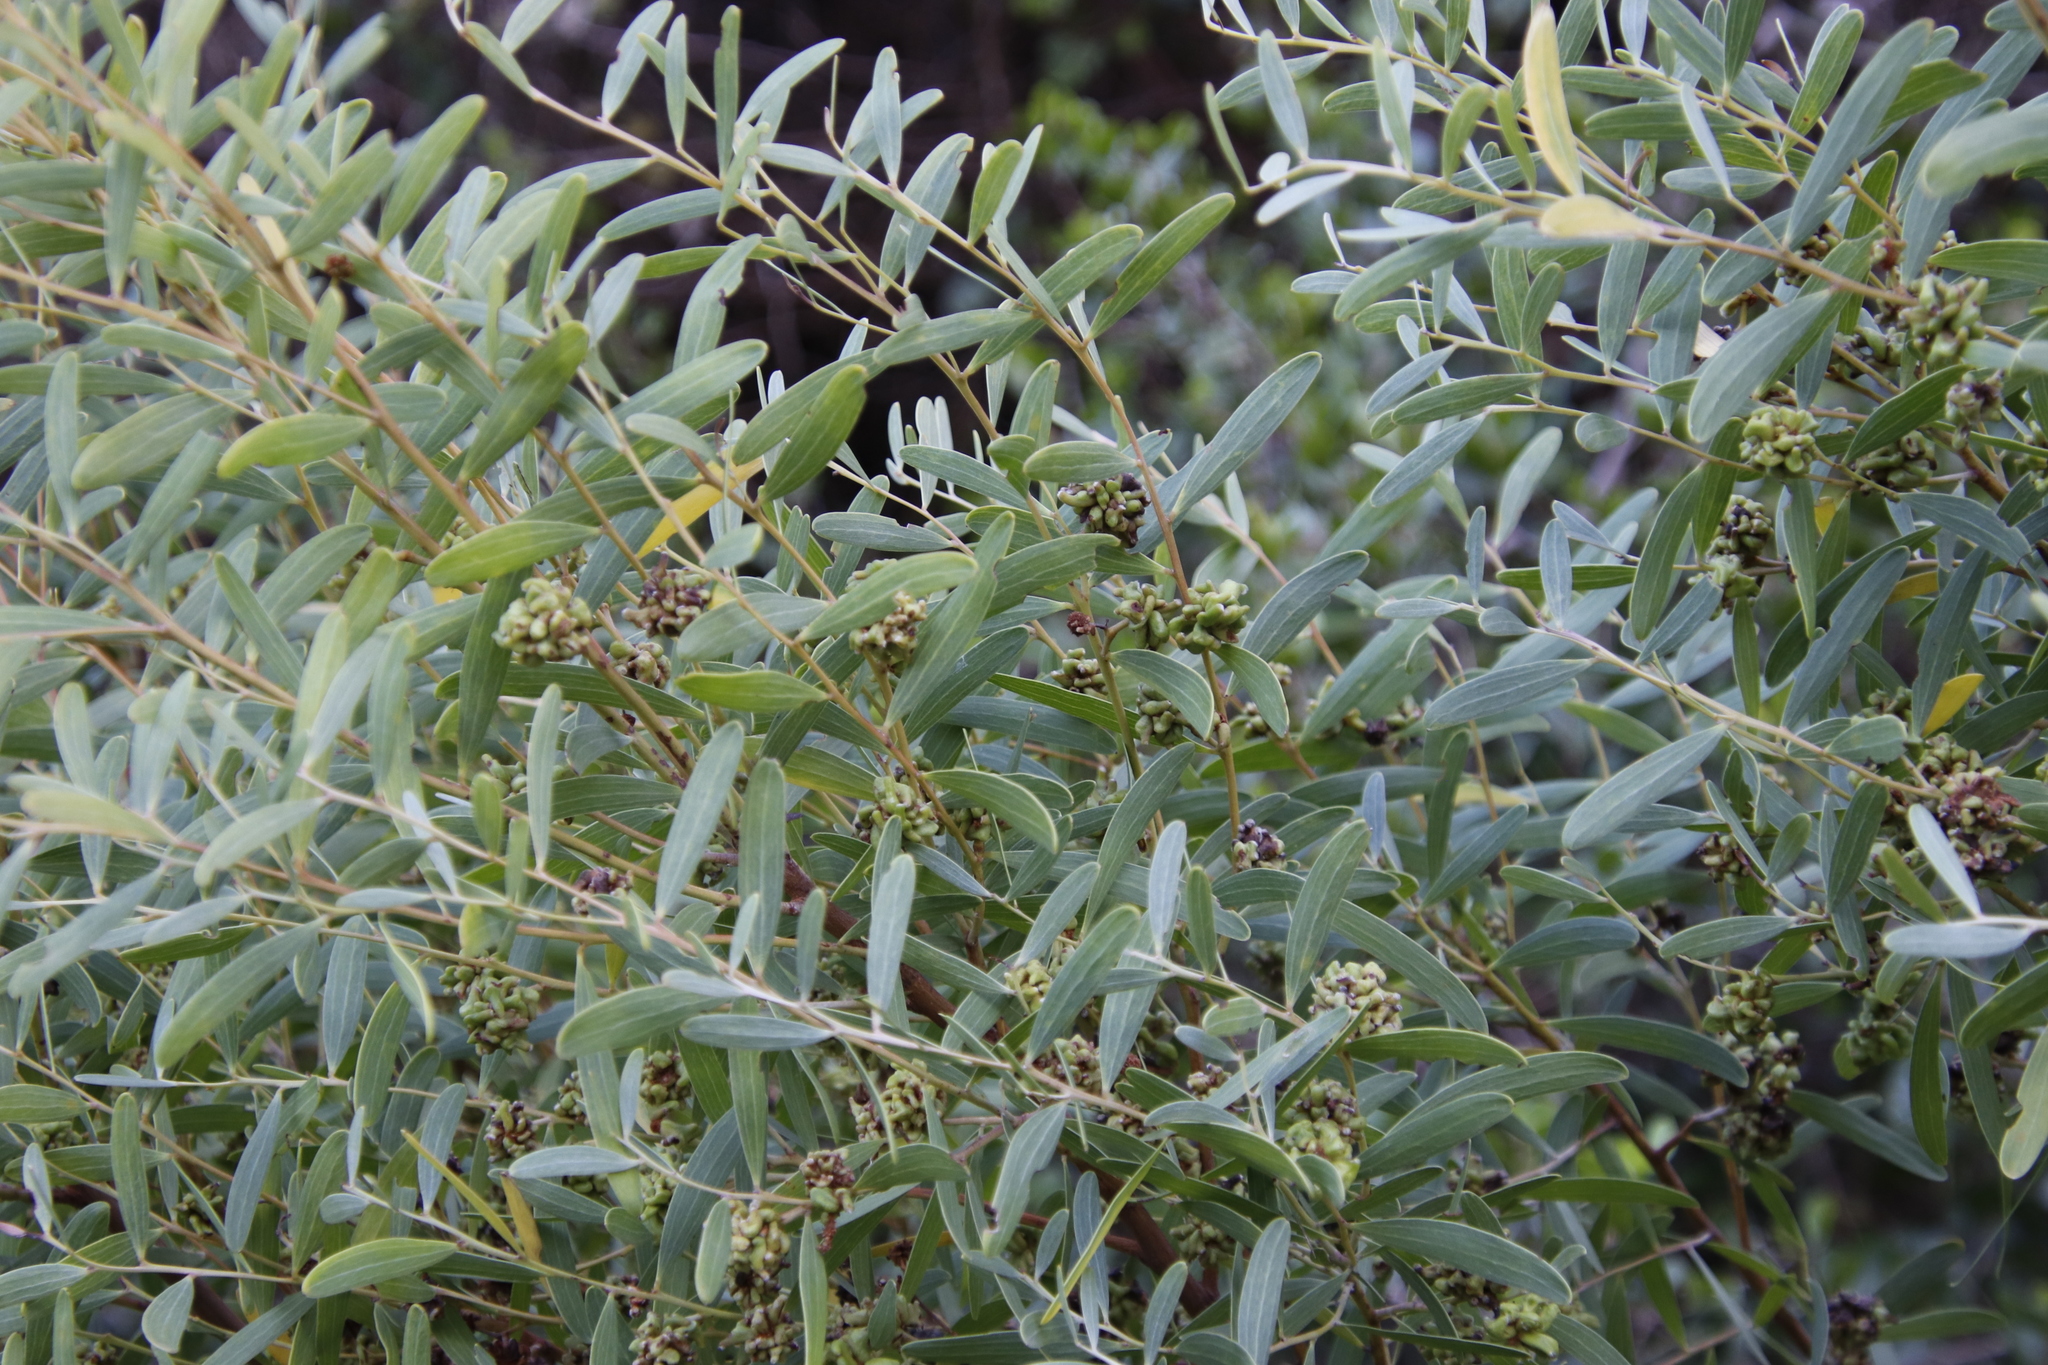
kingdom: Animalia
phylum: Arthropoda
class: Insecta
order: Diptera
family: Cecidomyiidae
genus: Dasineura
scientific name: Dasineura dielsi
